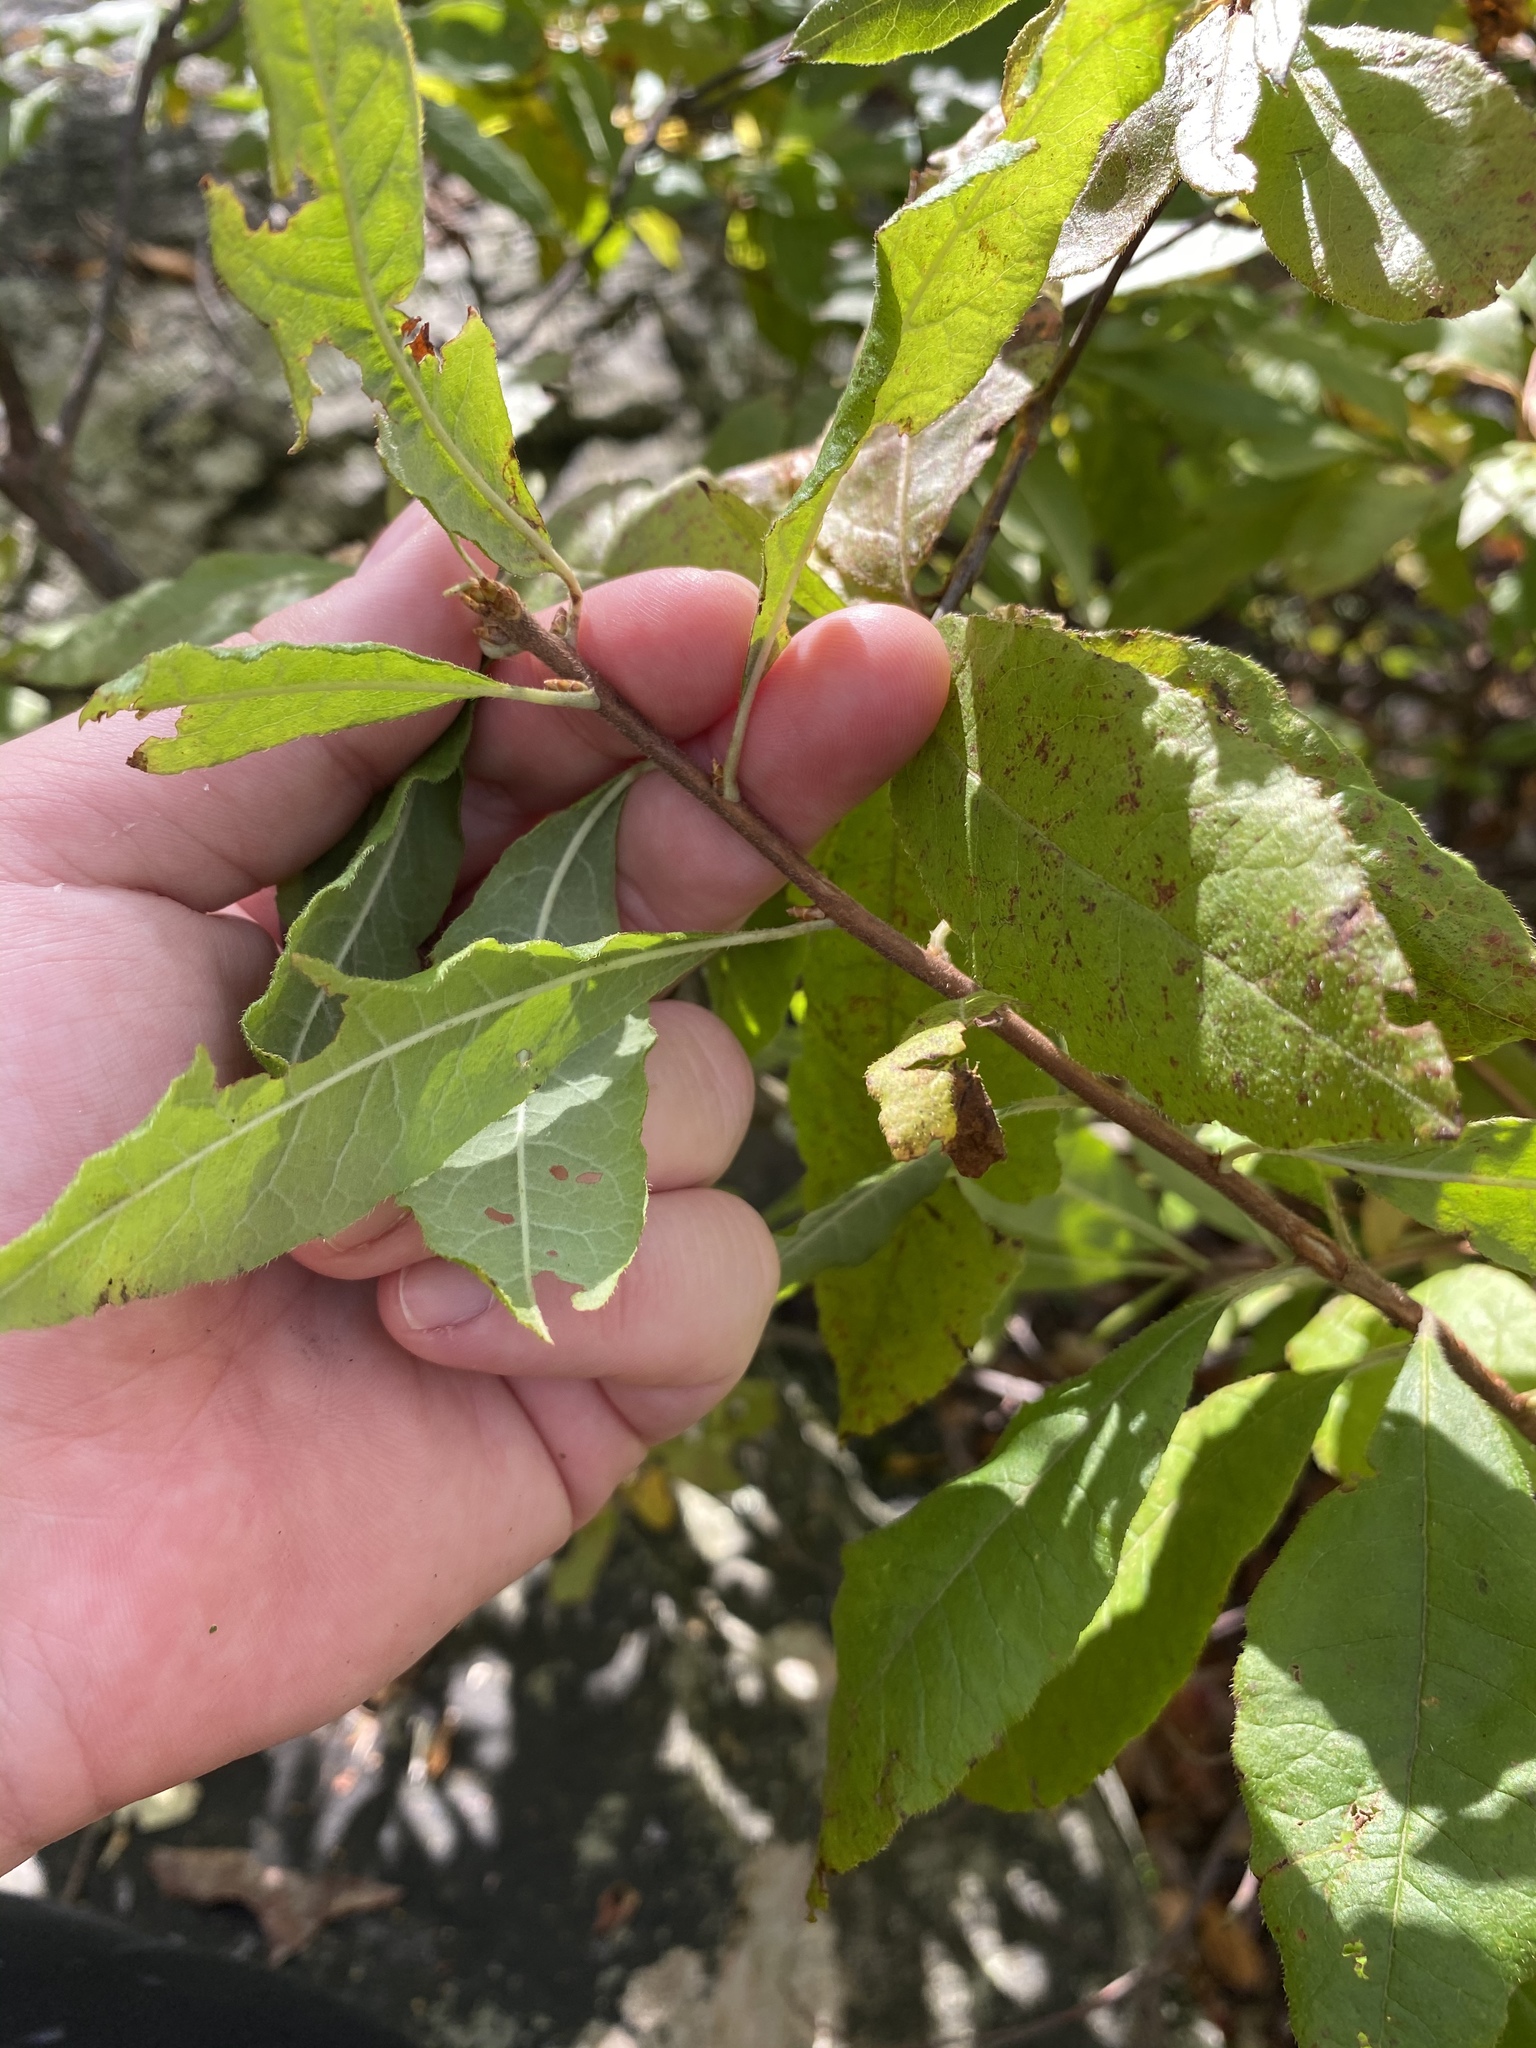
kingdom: Plantae
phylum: Tracheophyta
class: Magnoliopsida
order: Ericales
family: Ericaceae
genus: Rhododendron
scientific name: Rhododendron roseum
